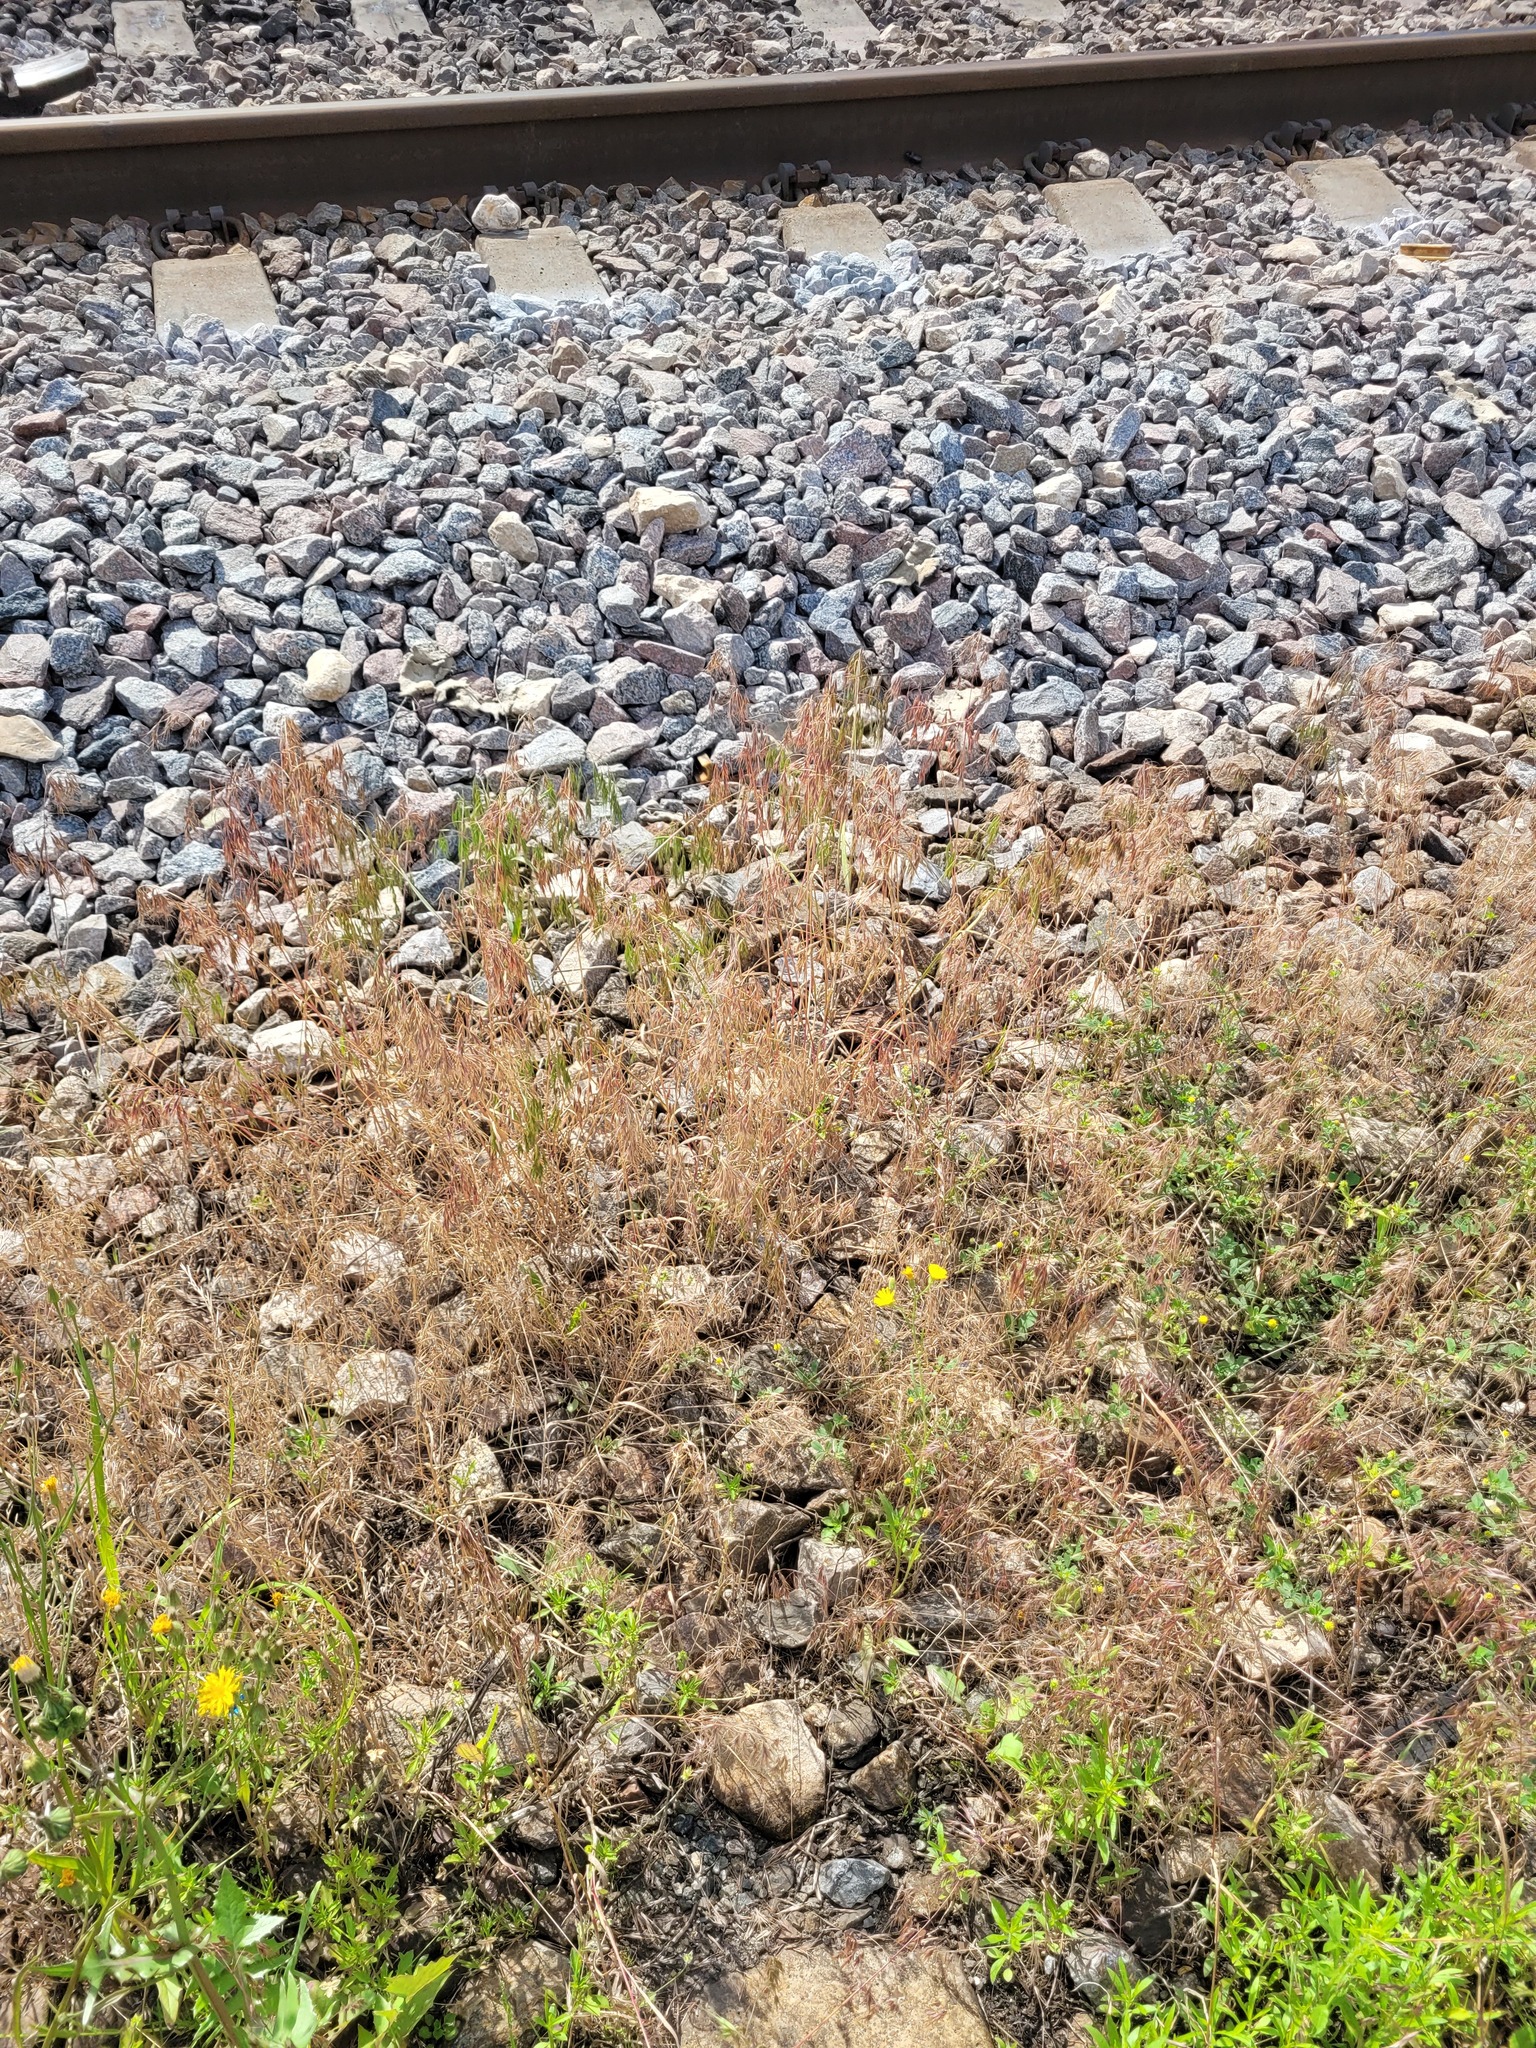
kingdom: Plantae
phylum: Tracheophyta
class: Liliopsida
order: Poales
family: Poaceae
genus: Bromus
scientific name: Bromus tectorum
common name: Cheatgrass
